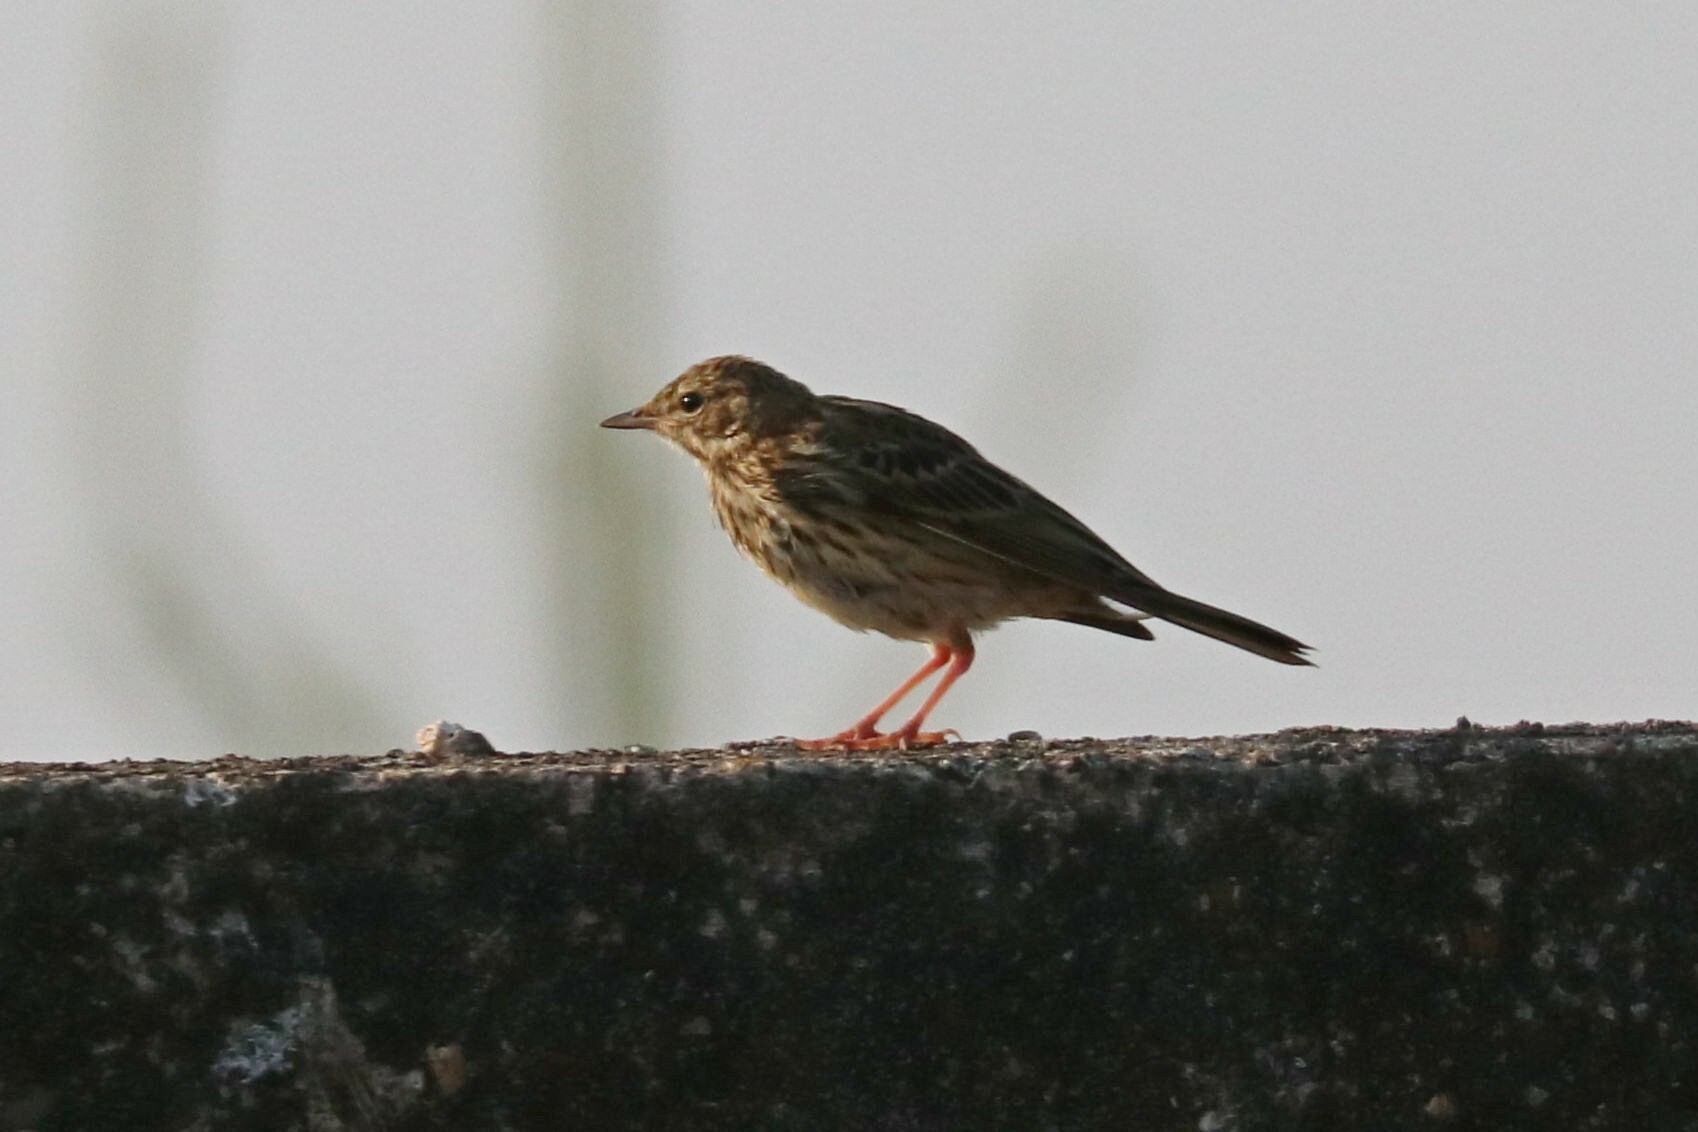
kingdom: Animalia
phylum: Chordata
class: Aves
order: Passeriformes
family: Motacillidae
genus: Anthus
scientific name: Anthus trivialis
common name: Tree pipit
